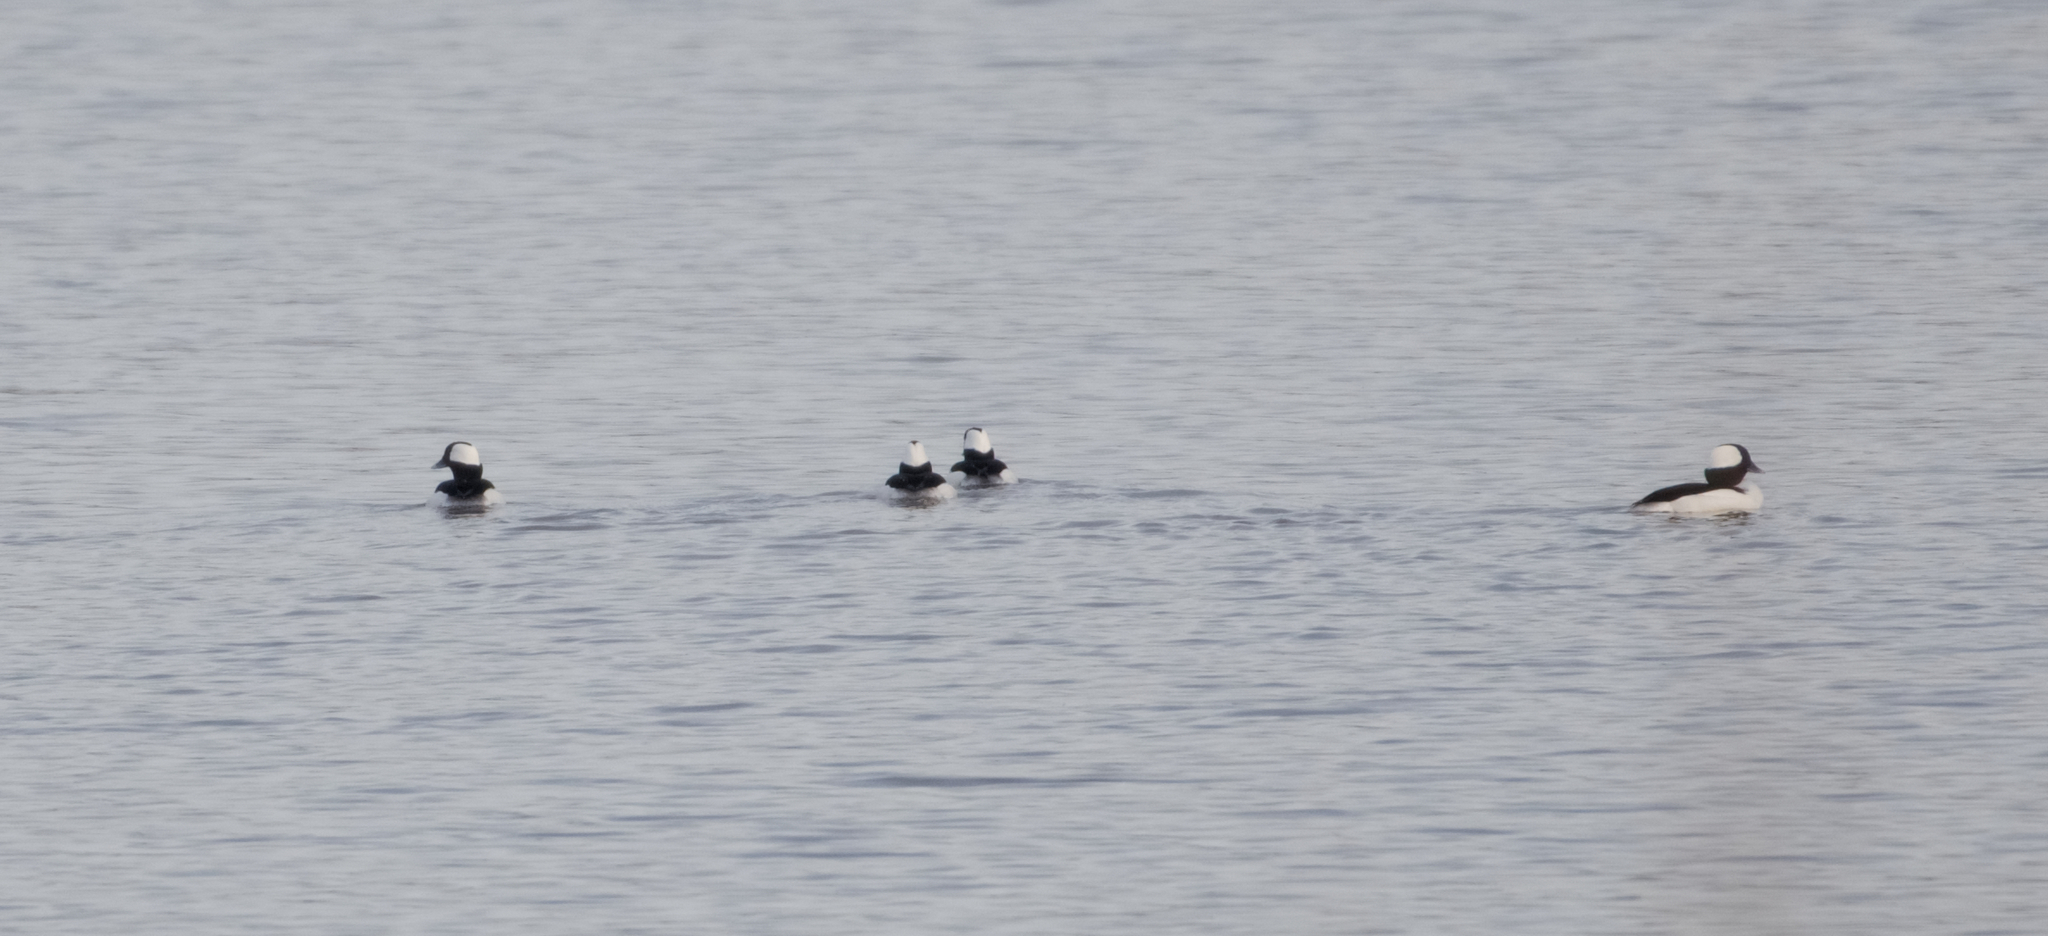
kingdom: Animalia
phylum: Chordata
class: Aves
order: Anseriformes
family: Anatidae
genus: Bucephala
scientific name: Bucephala albeola
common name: Bufflehead
